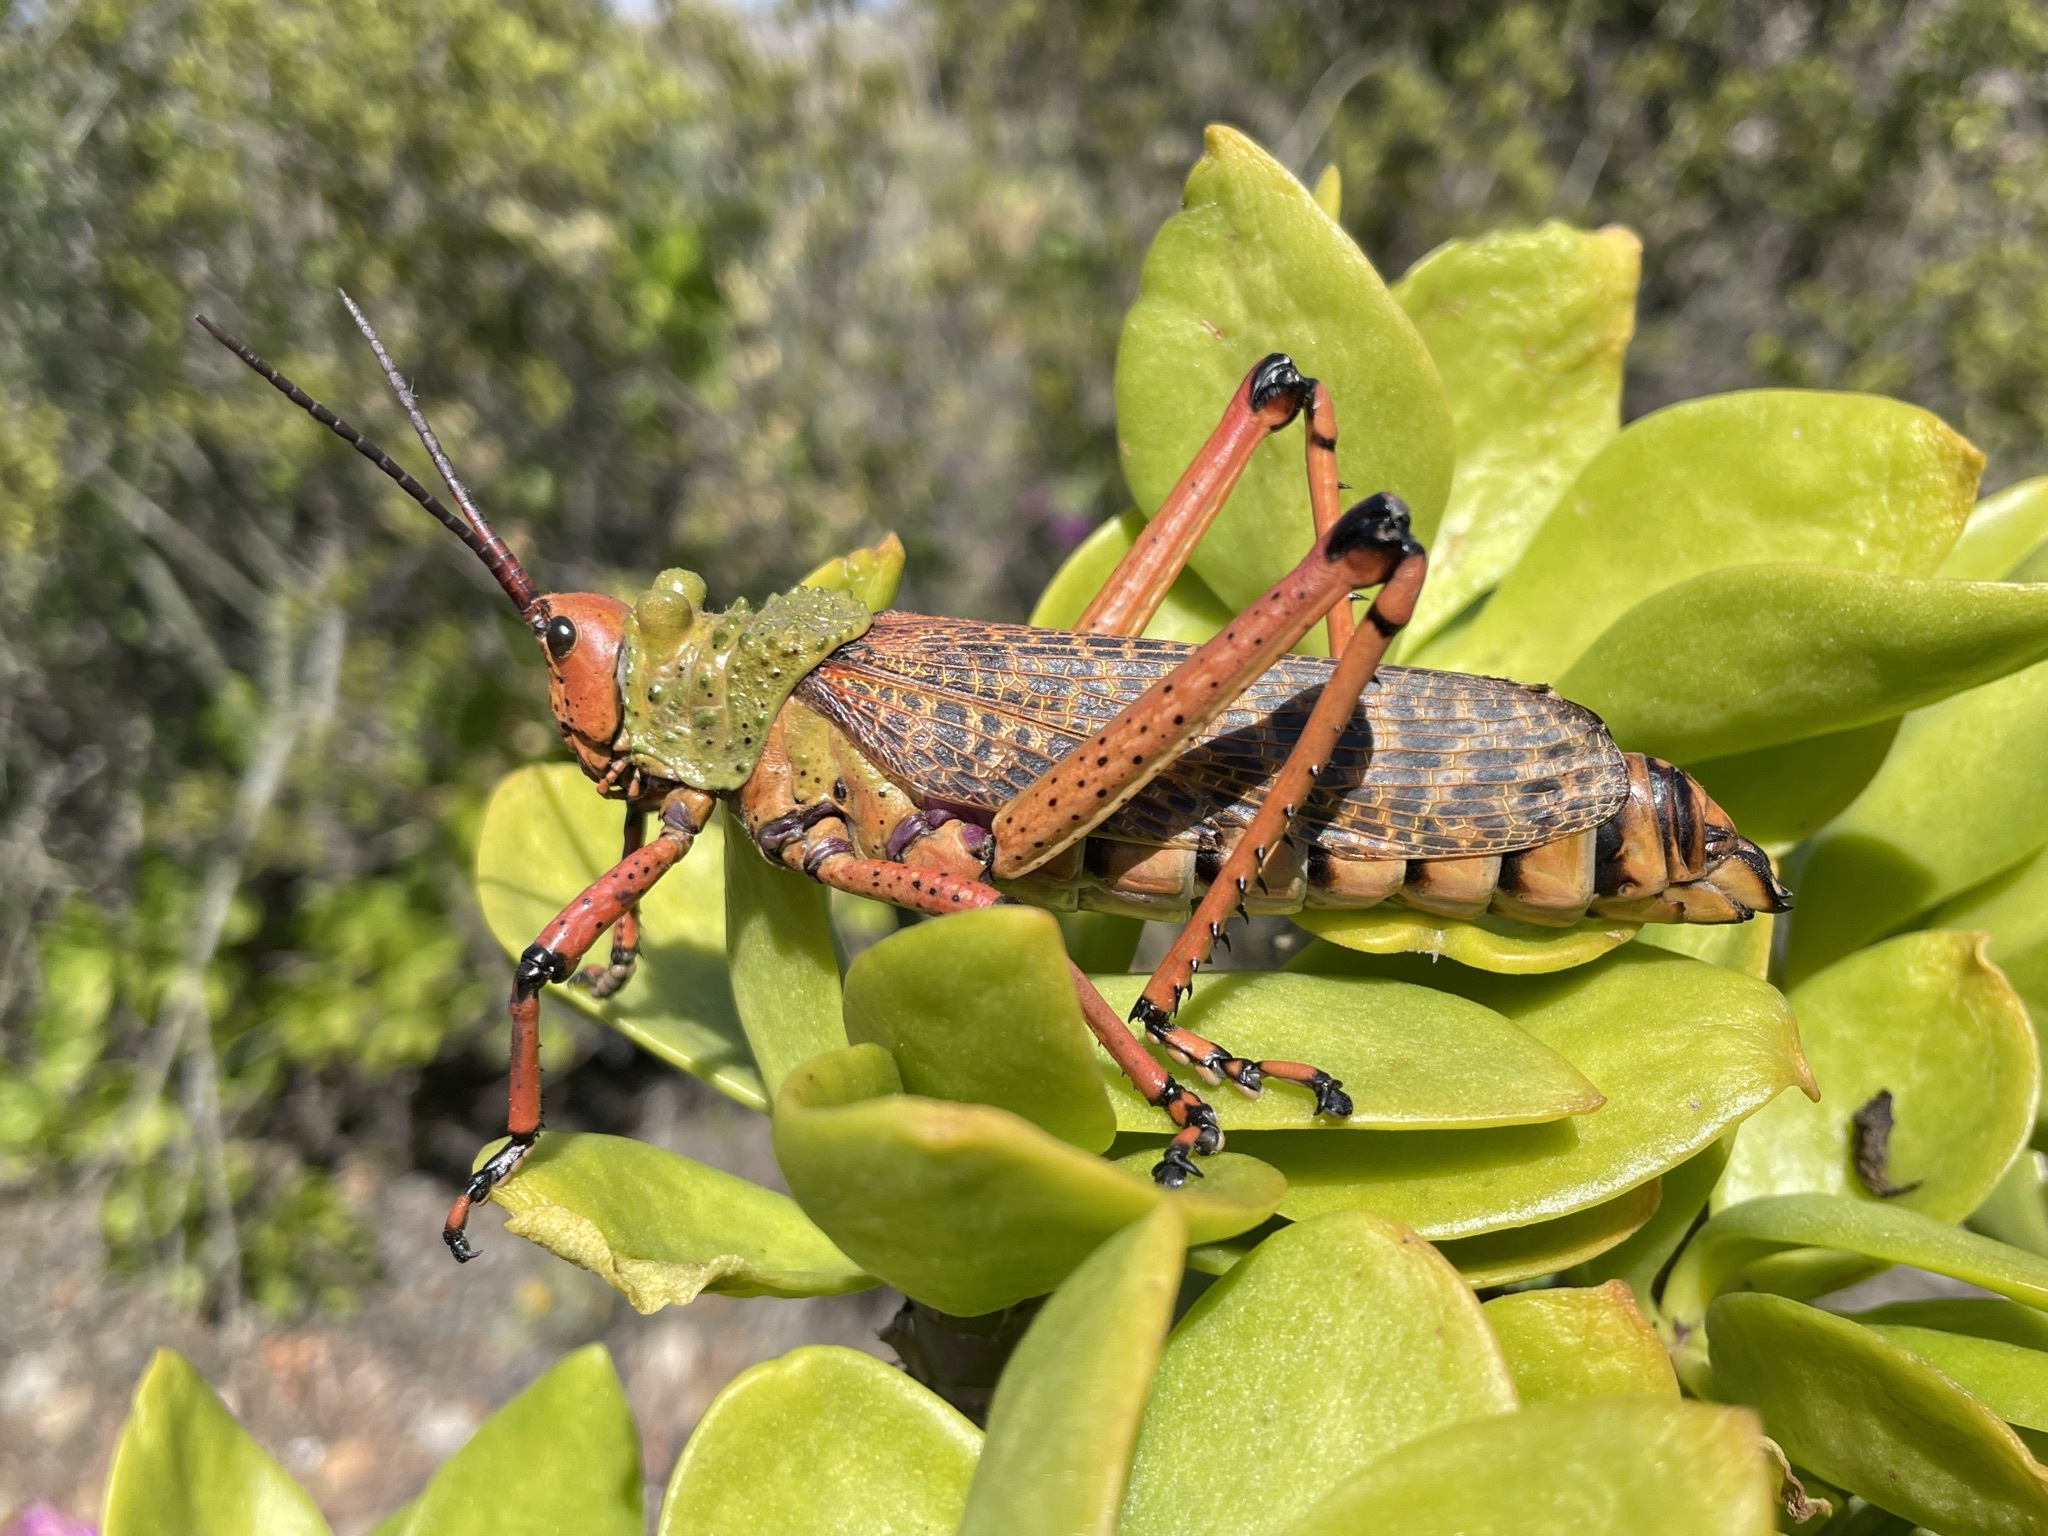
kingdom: Animalia
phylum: Arthropoda
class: Insecta
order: Orthoptera
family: Pyrgomorphidae
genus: Phymateus
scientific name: Phymateus leprosus
